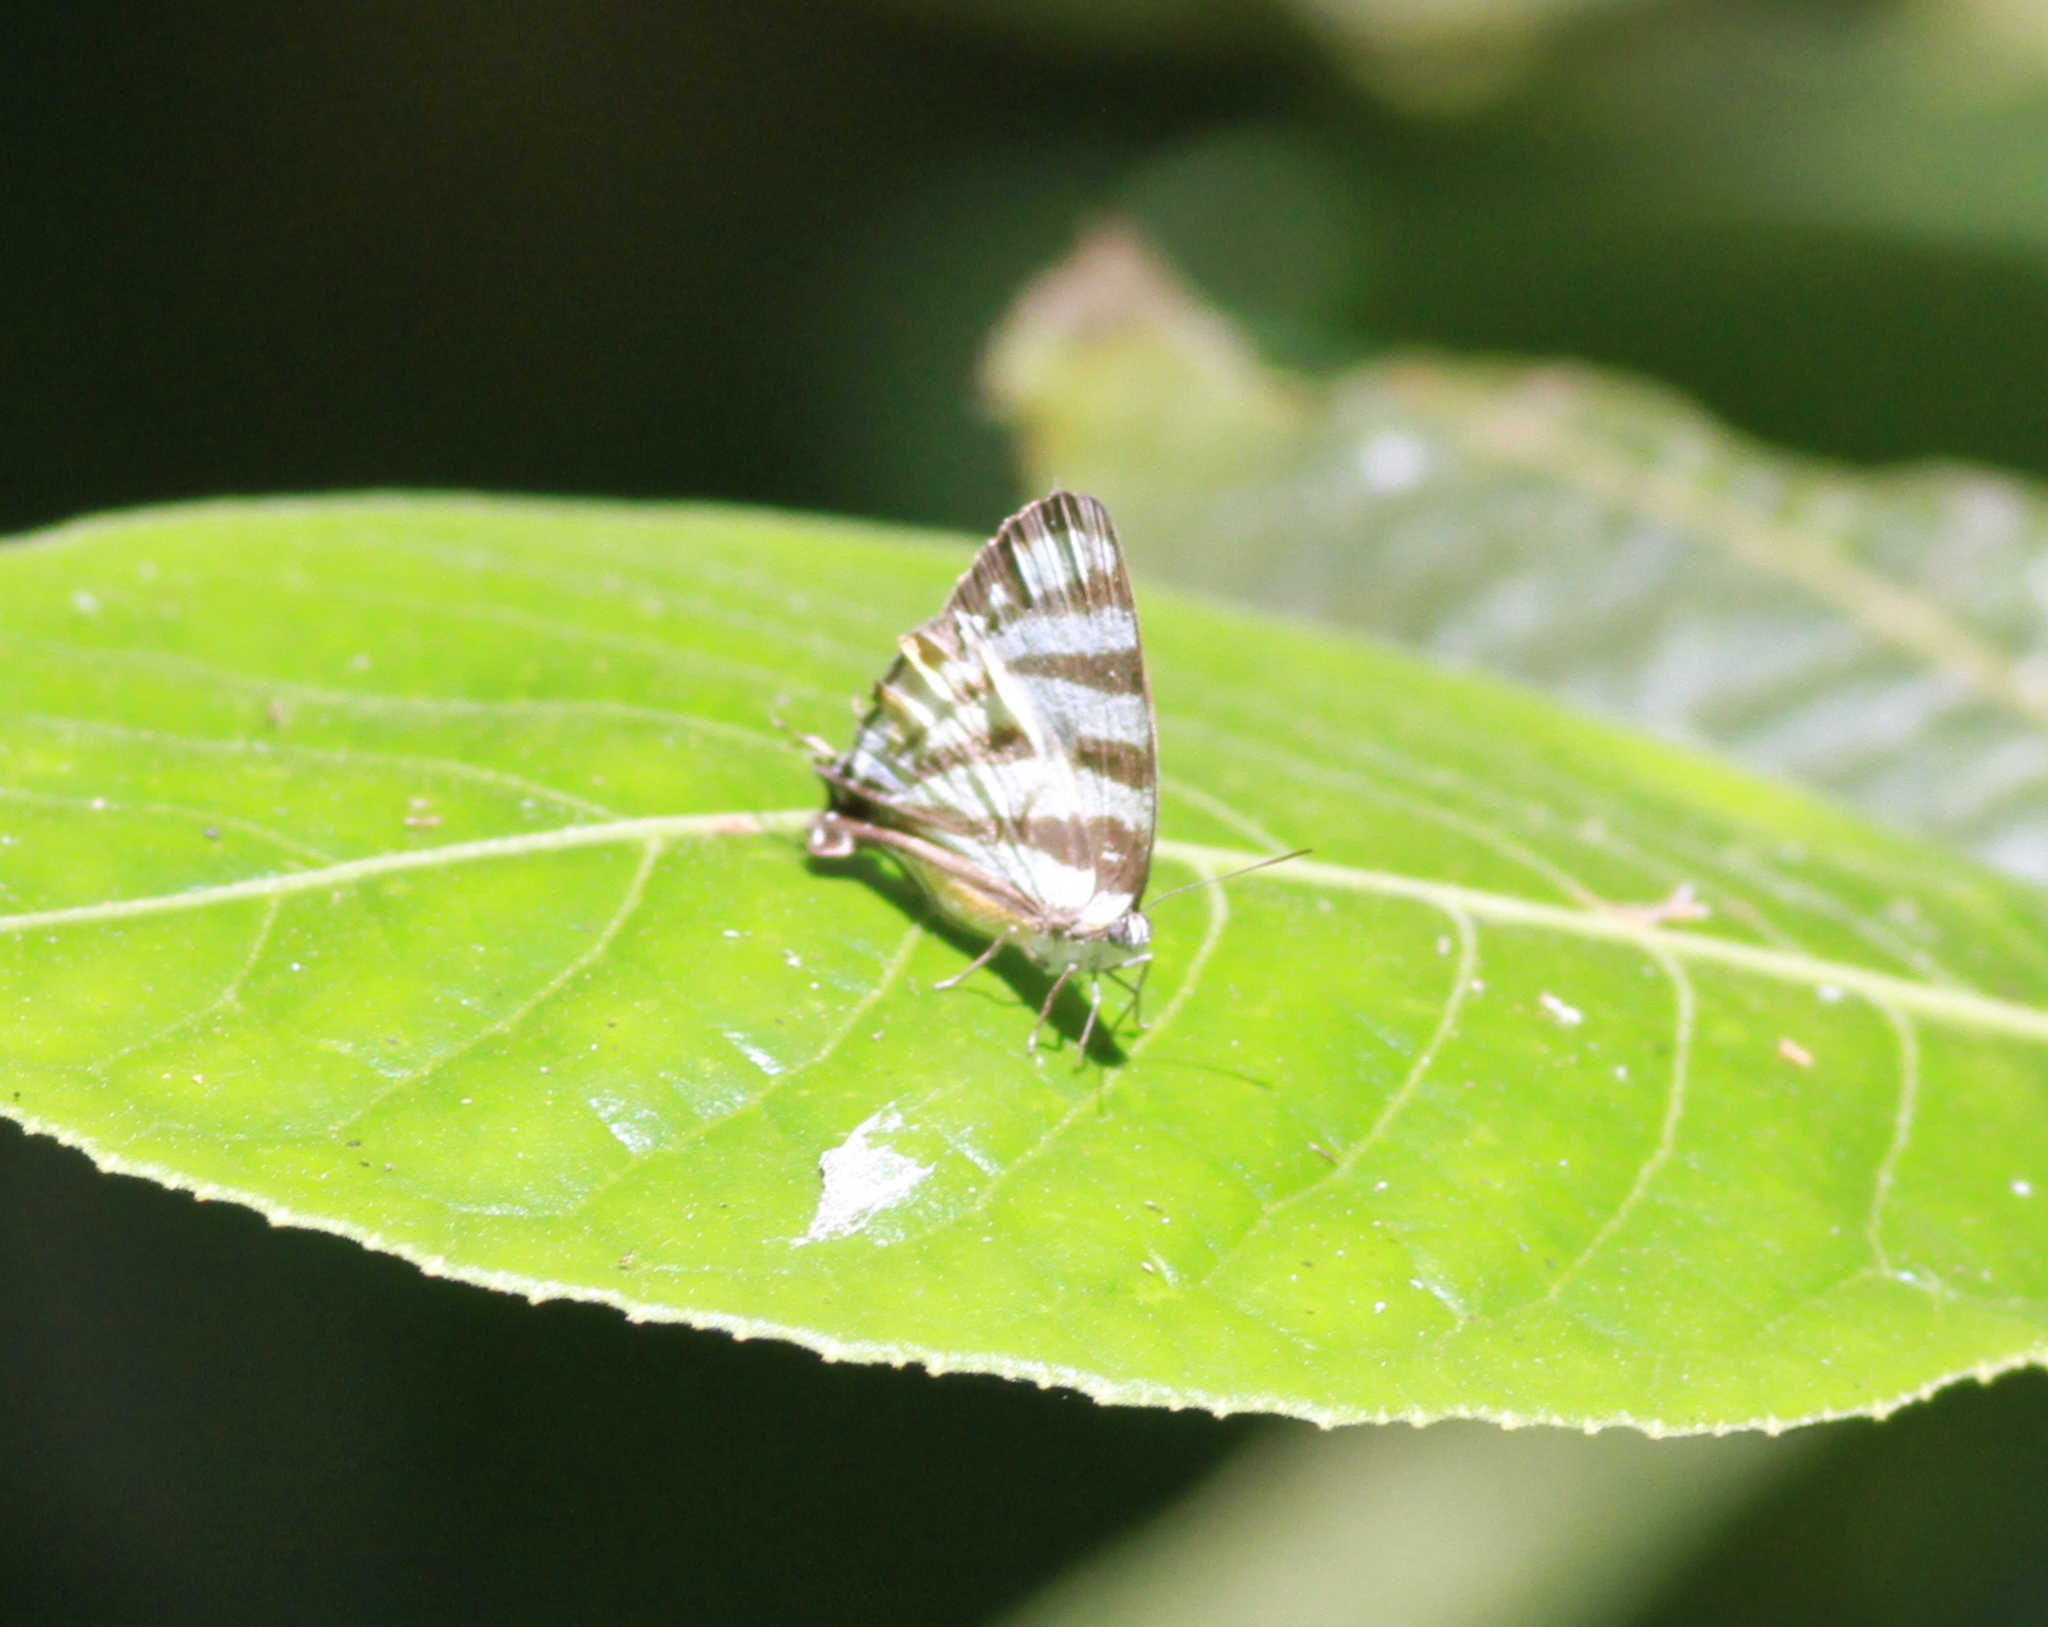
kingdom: Animalia
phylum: Arthropoda
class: Insecta
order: Lepidoptera
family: Lycaenidae
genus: Arawacus
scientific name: Arawacus lincoides
